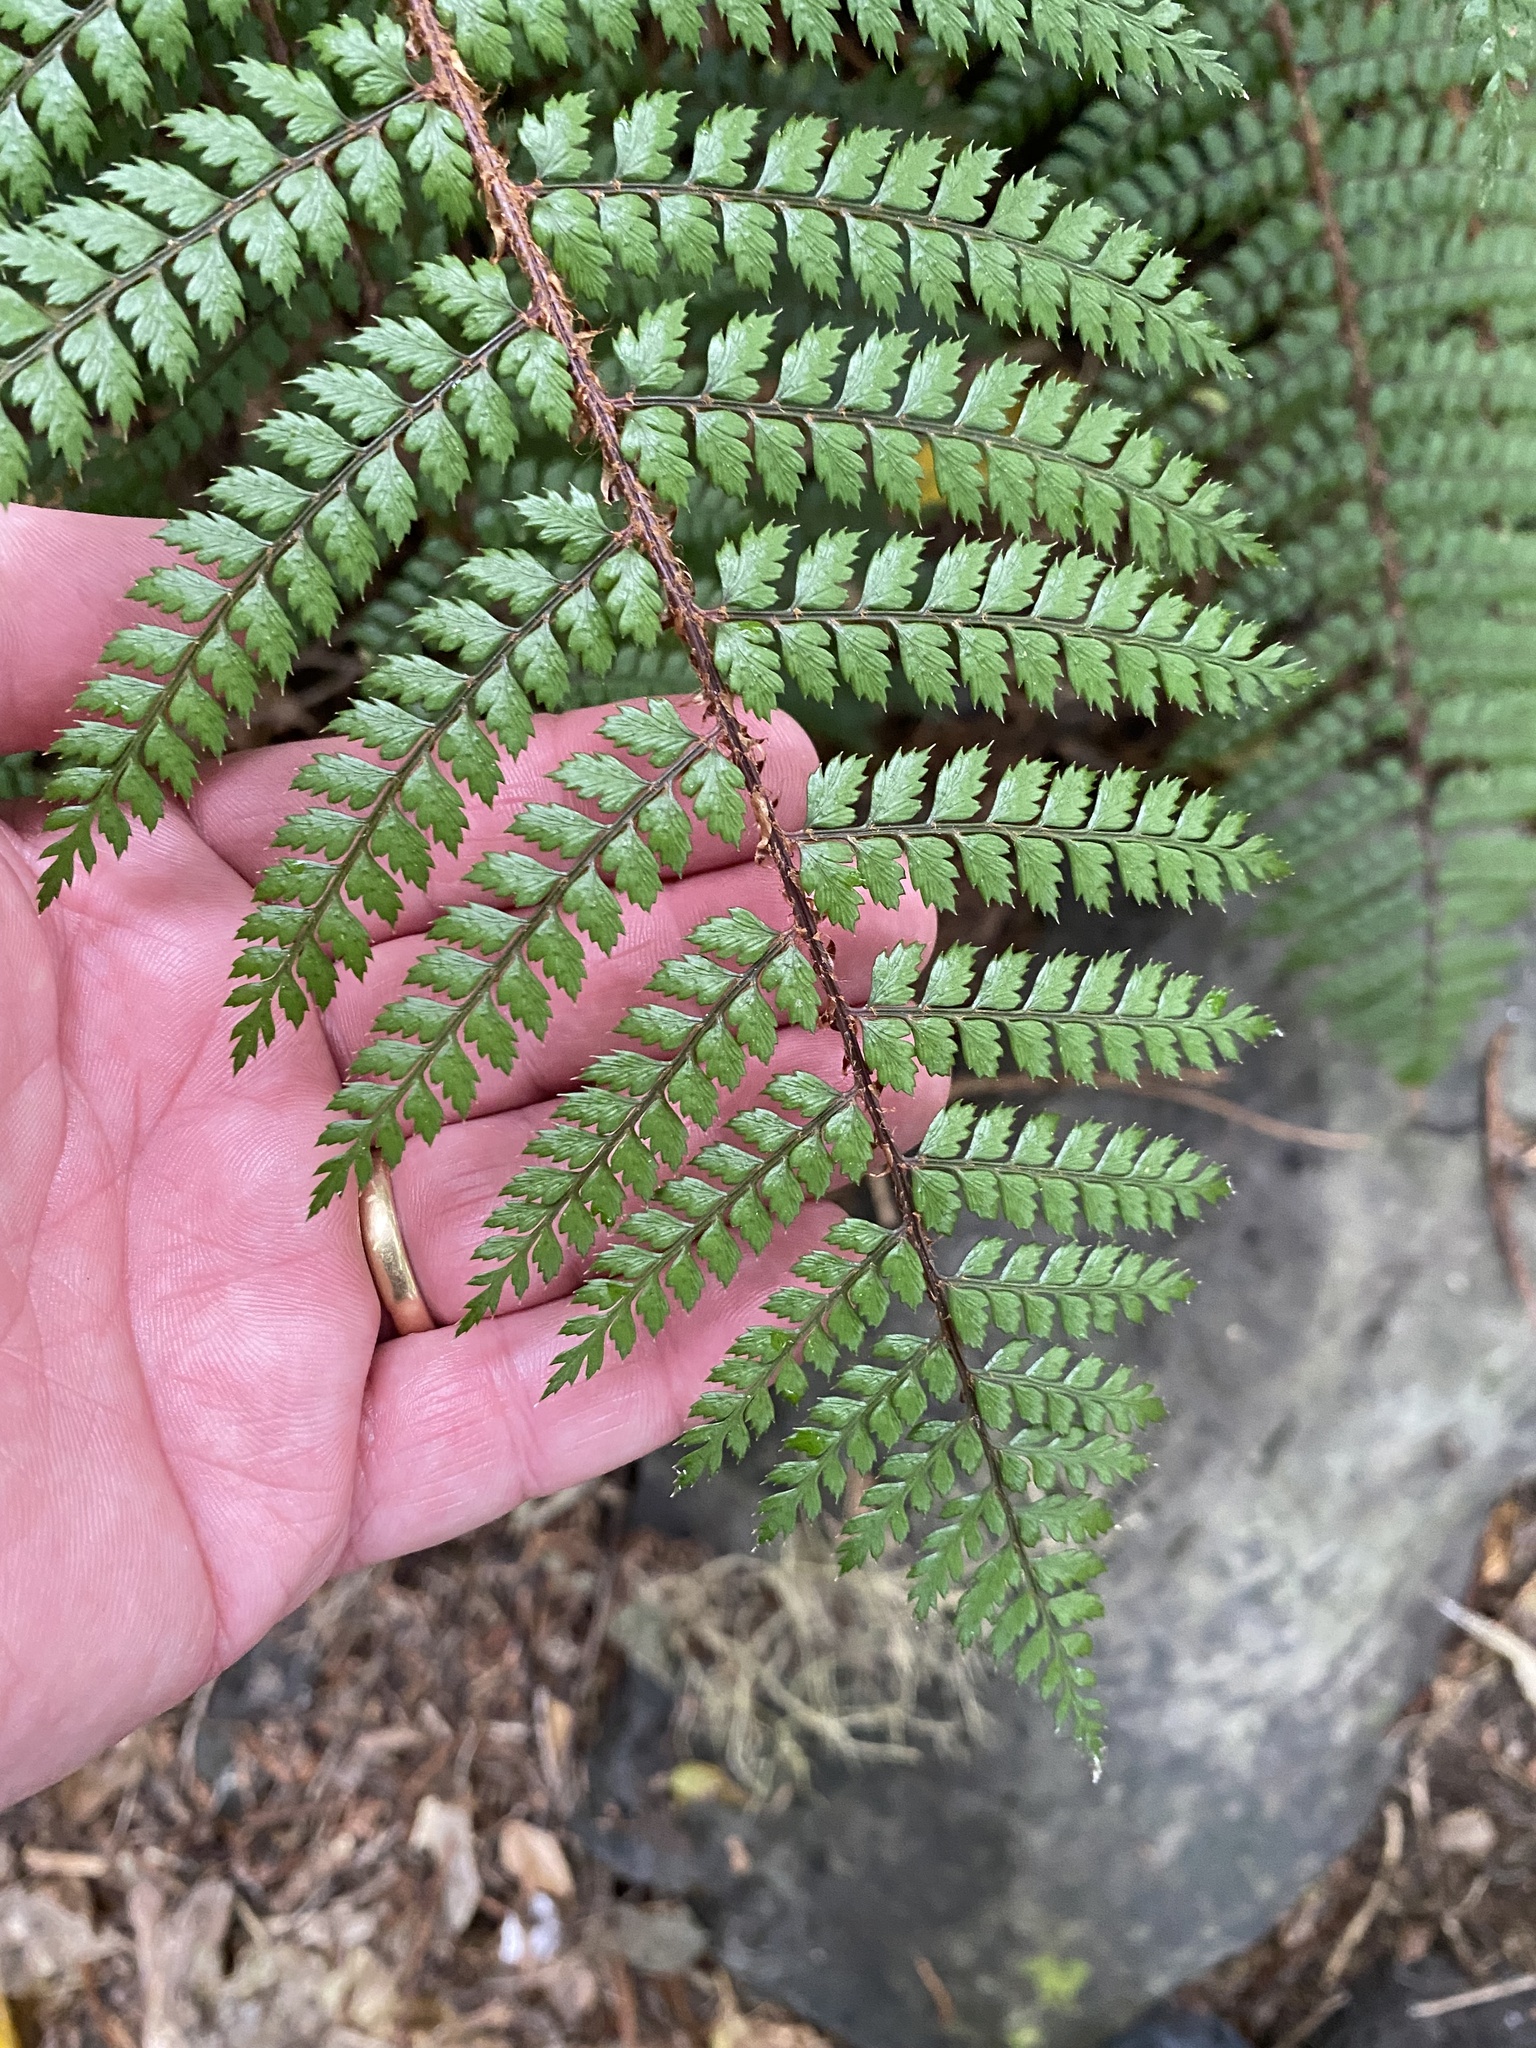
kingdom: Plantae
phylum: Tracheophyta
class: Polypodiopsida
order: Polypodiales
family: Dryopteridaceae
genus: Polystichum
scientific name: Polystichum vestitum
